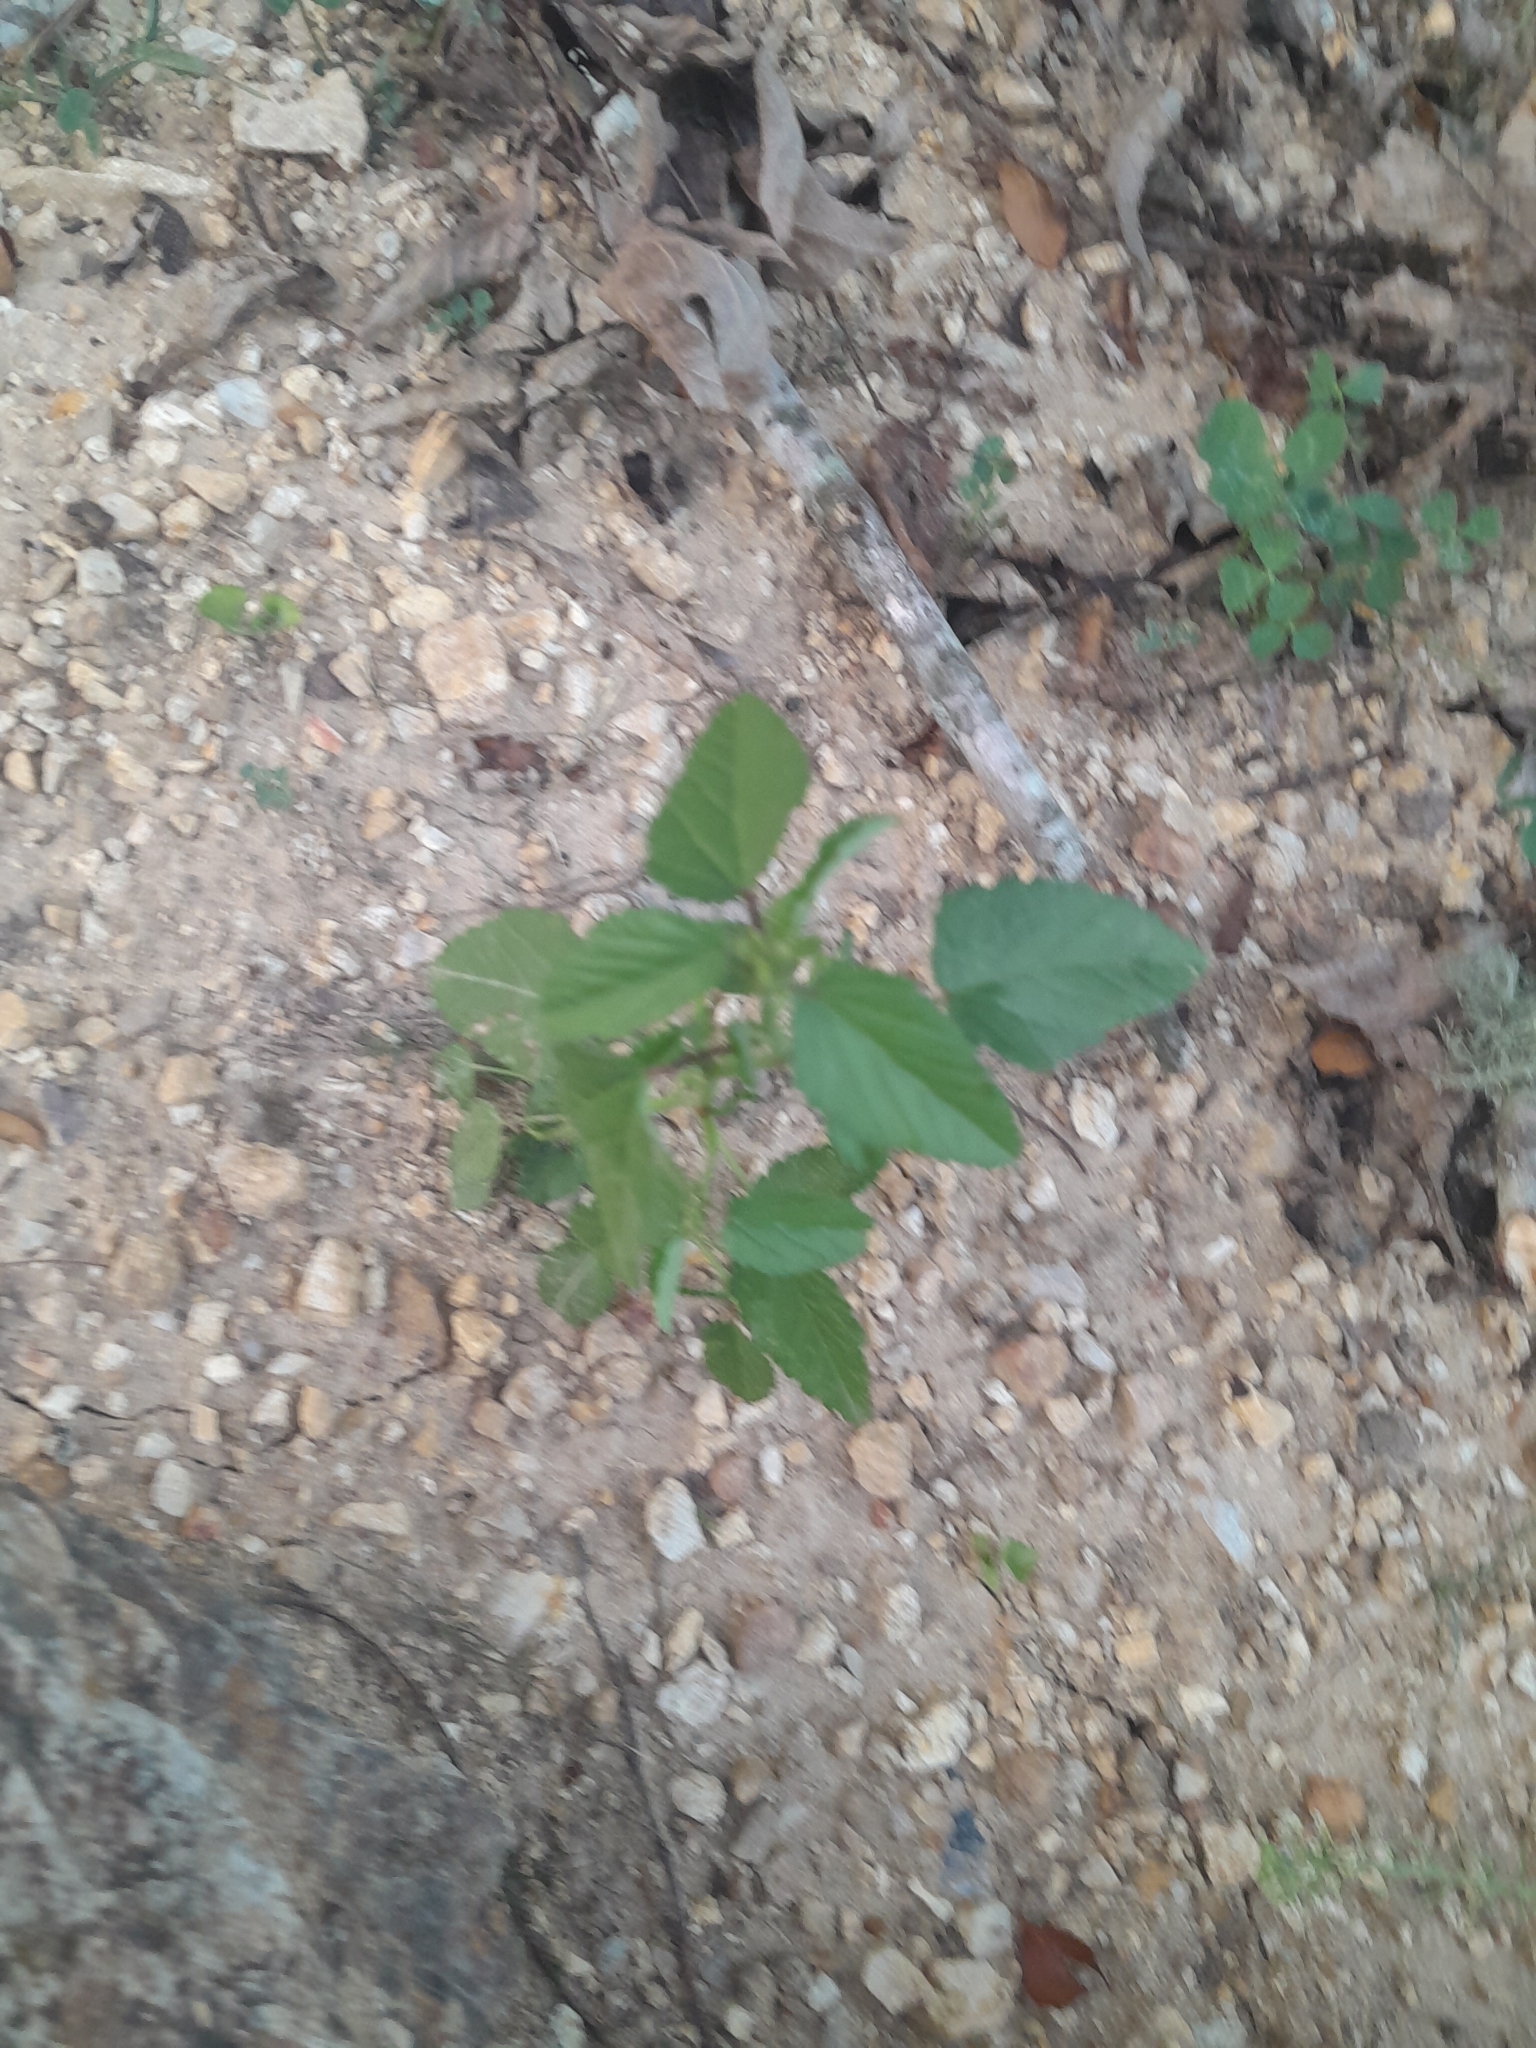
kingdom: Plantae
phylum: Tracheophyta
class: Magnoliopsida
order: Rosales
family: Moraceae
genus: Fatoua
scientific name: Fatoua villosa
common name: Hairy crabweed
